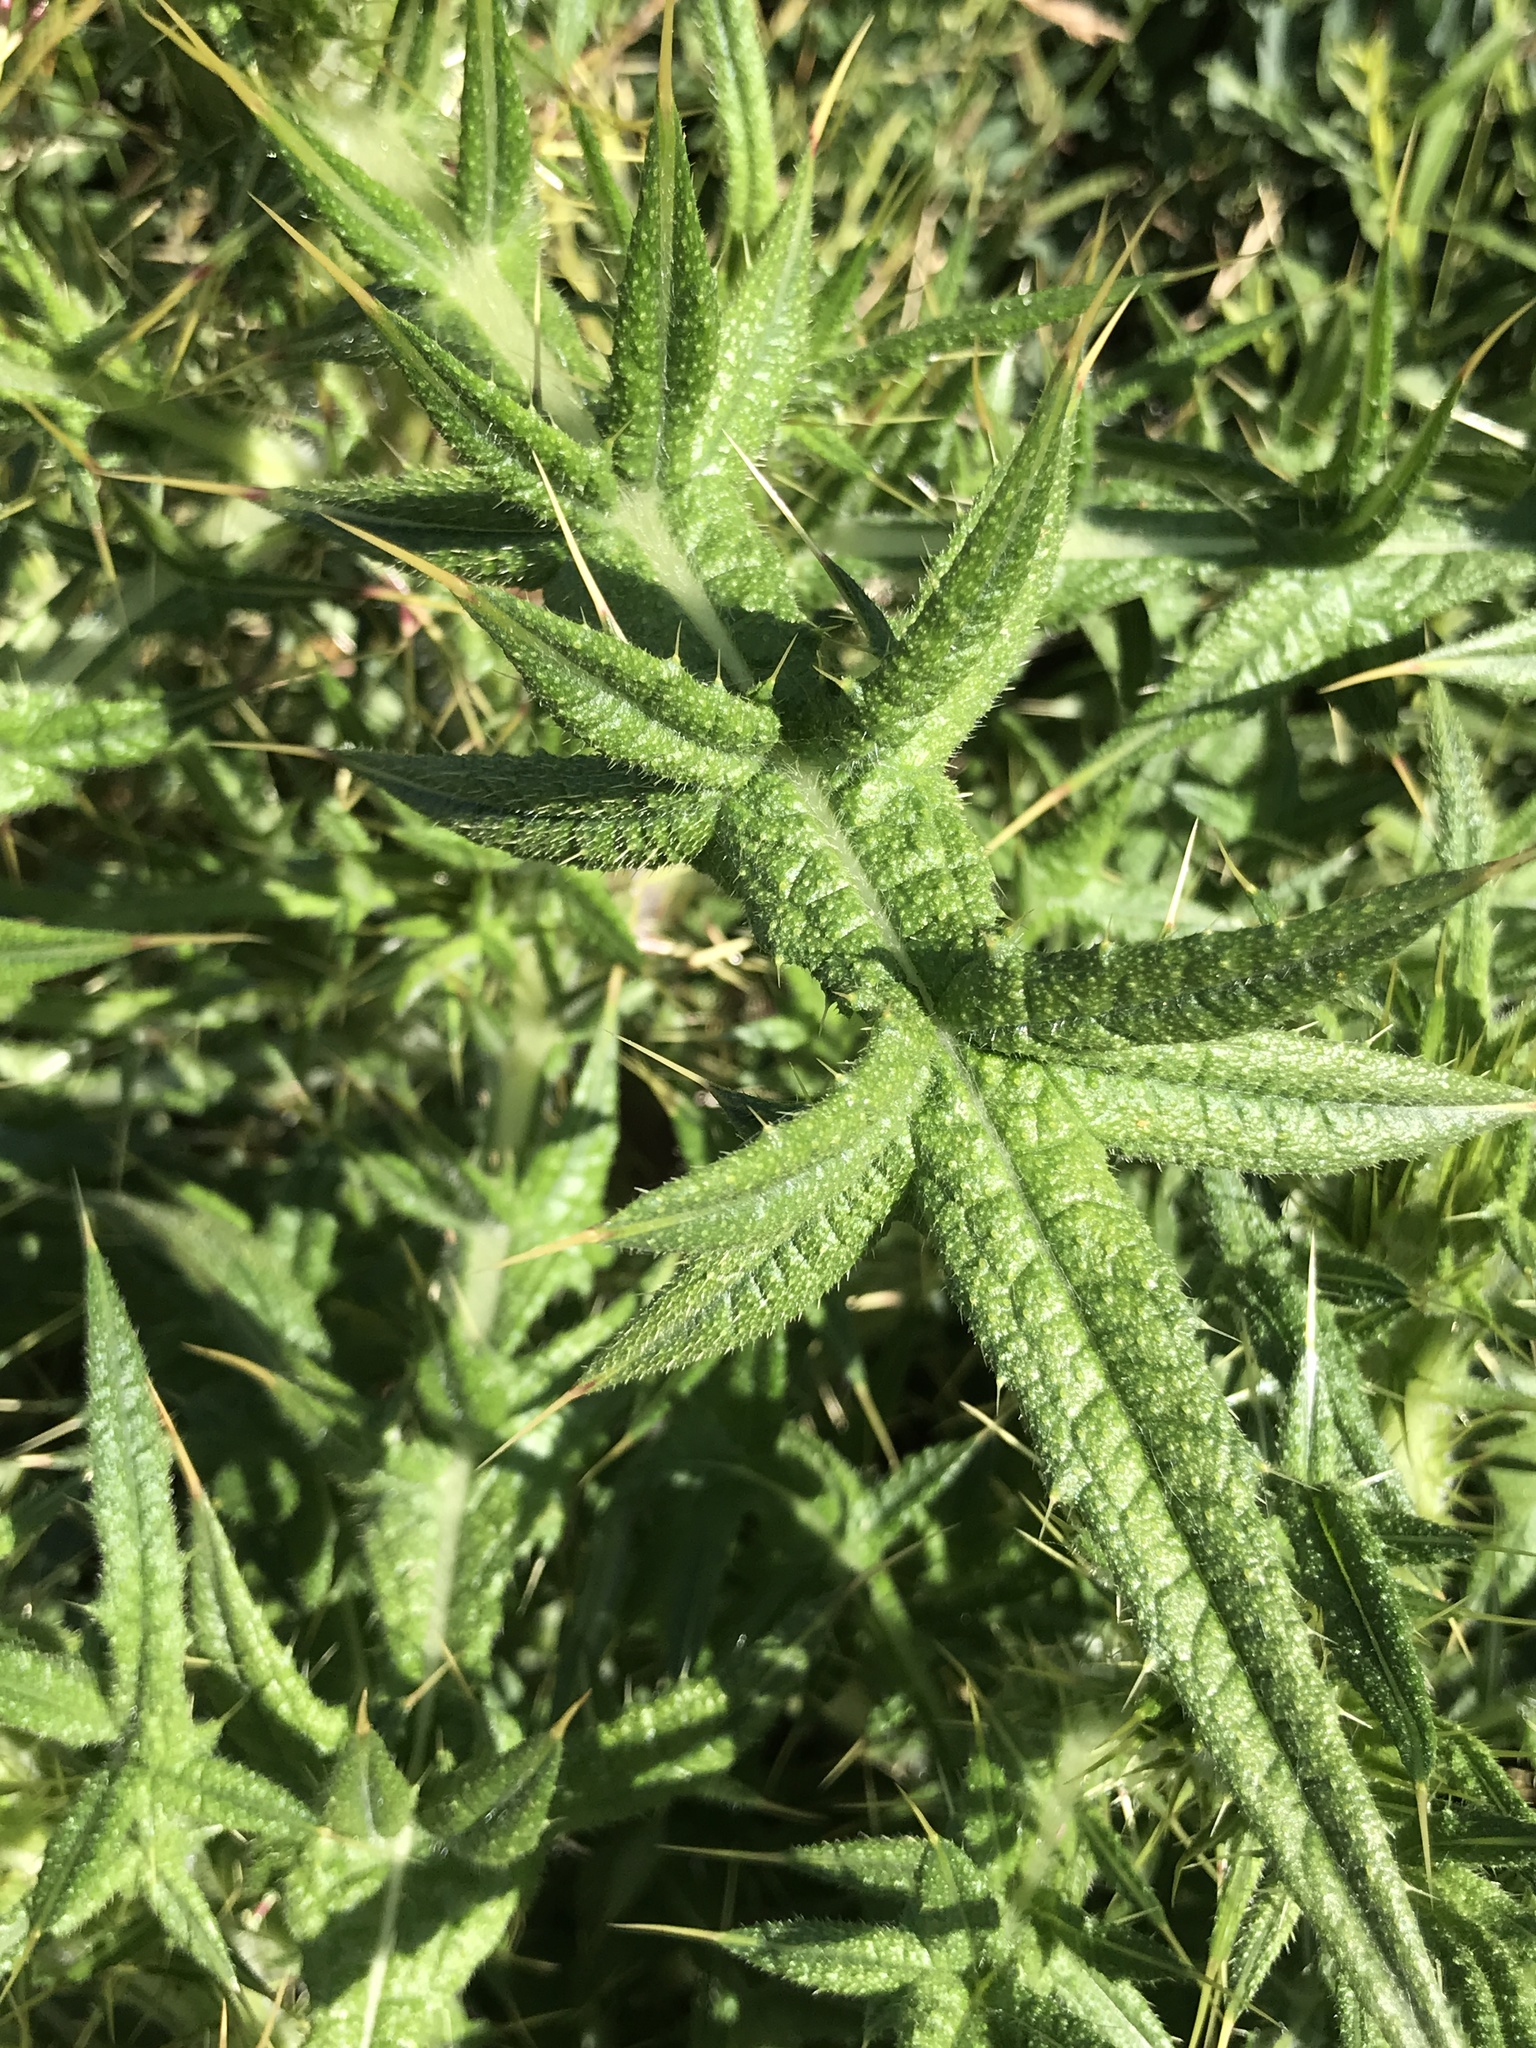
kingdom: Plantae
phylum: Tracheophyta
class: Magnoliopsida
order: Asterales
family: Asteraceae
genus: Cirsium
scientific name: Cirsium vulgare
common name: Bull thistle
